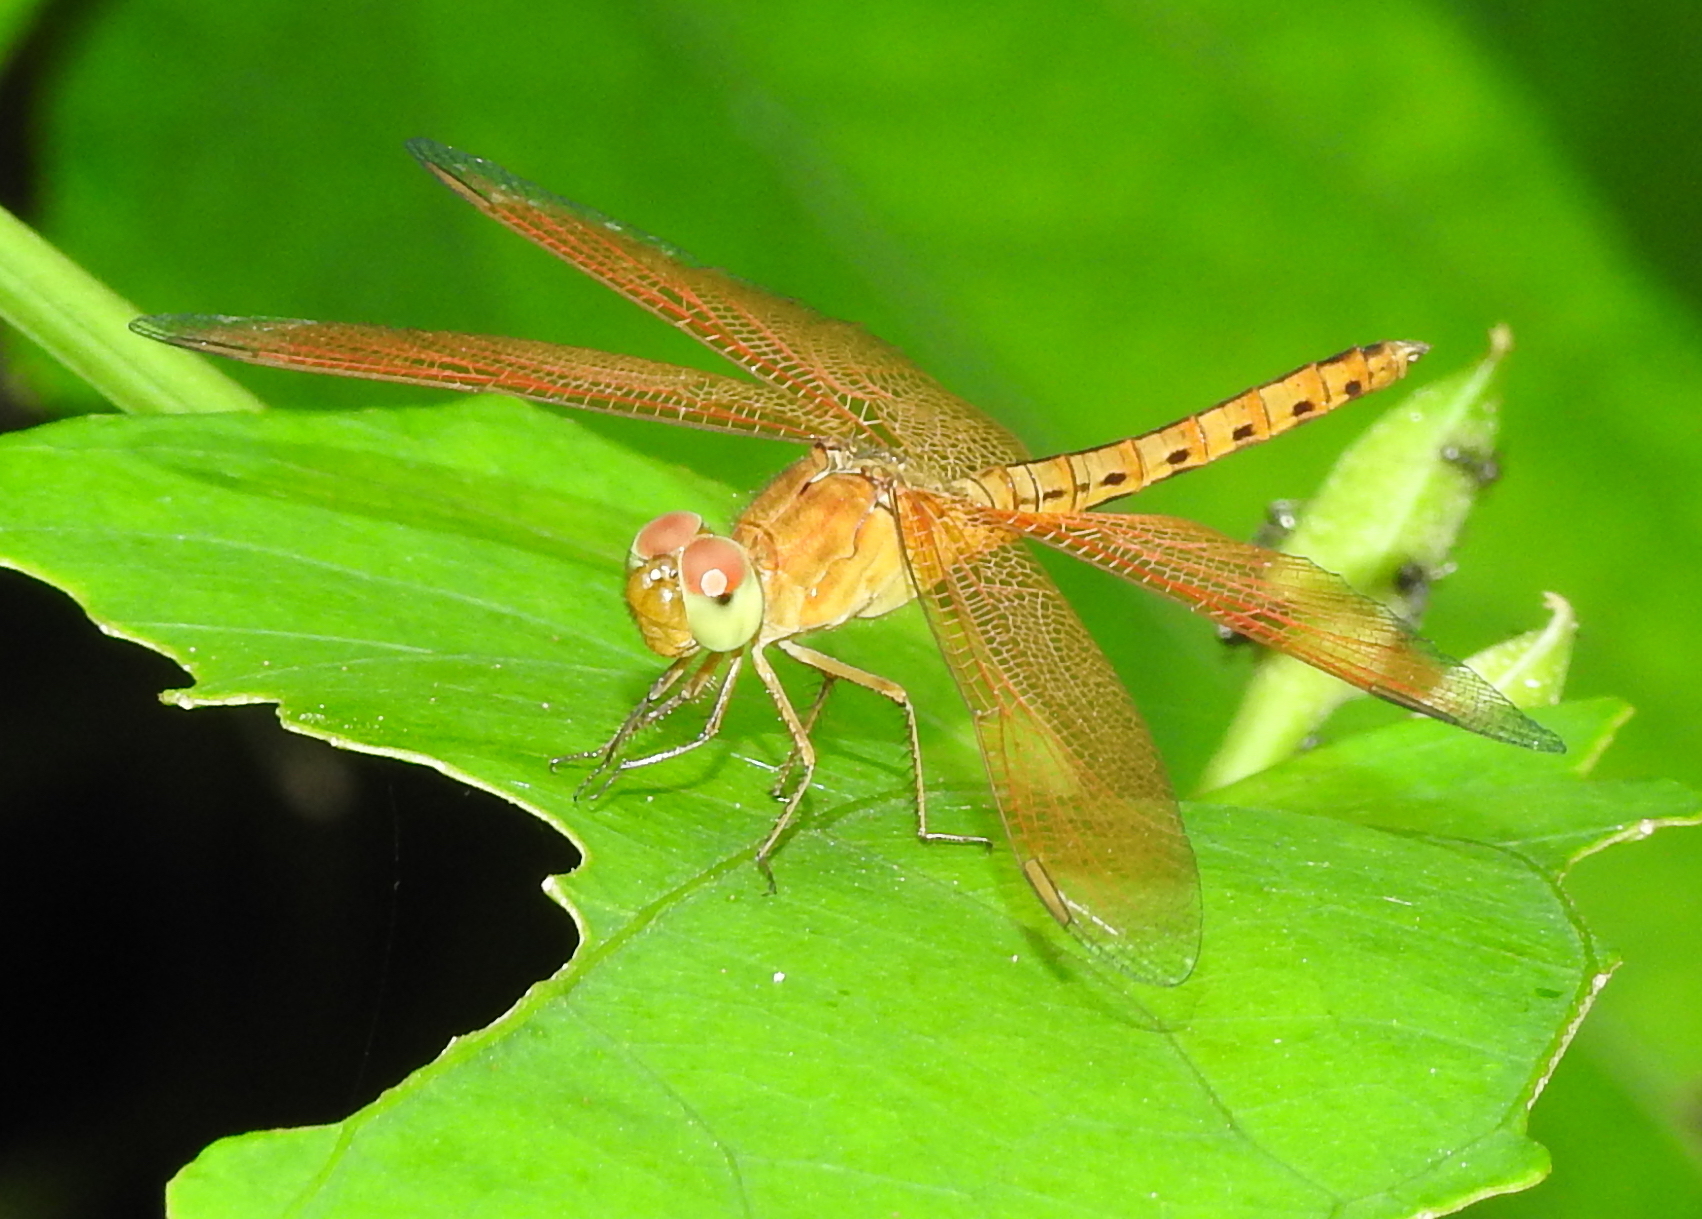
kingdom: Animalia
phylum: Arthropoda
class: Insecta
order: Odonata
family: Libellulidae
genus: Neurothemis
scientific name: Neurothemis fluctuans
